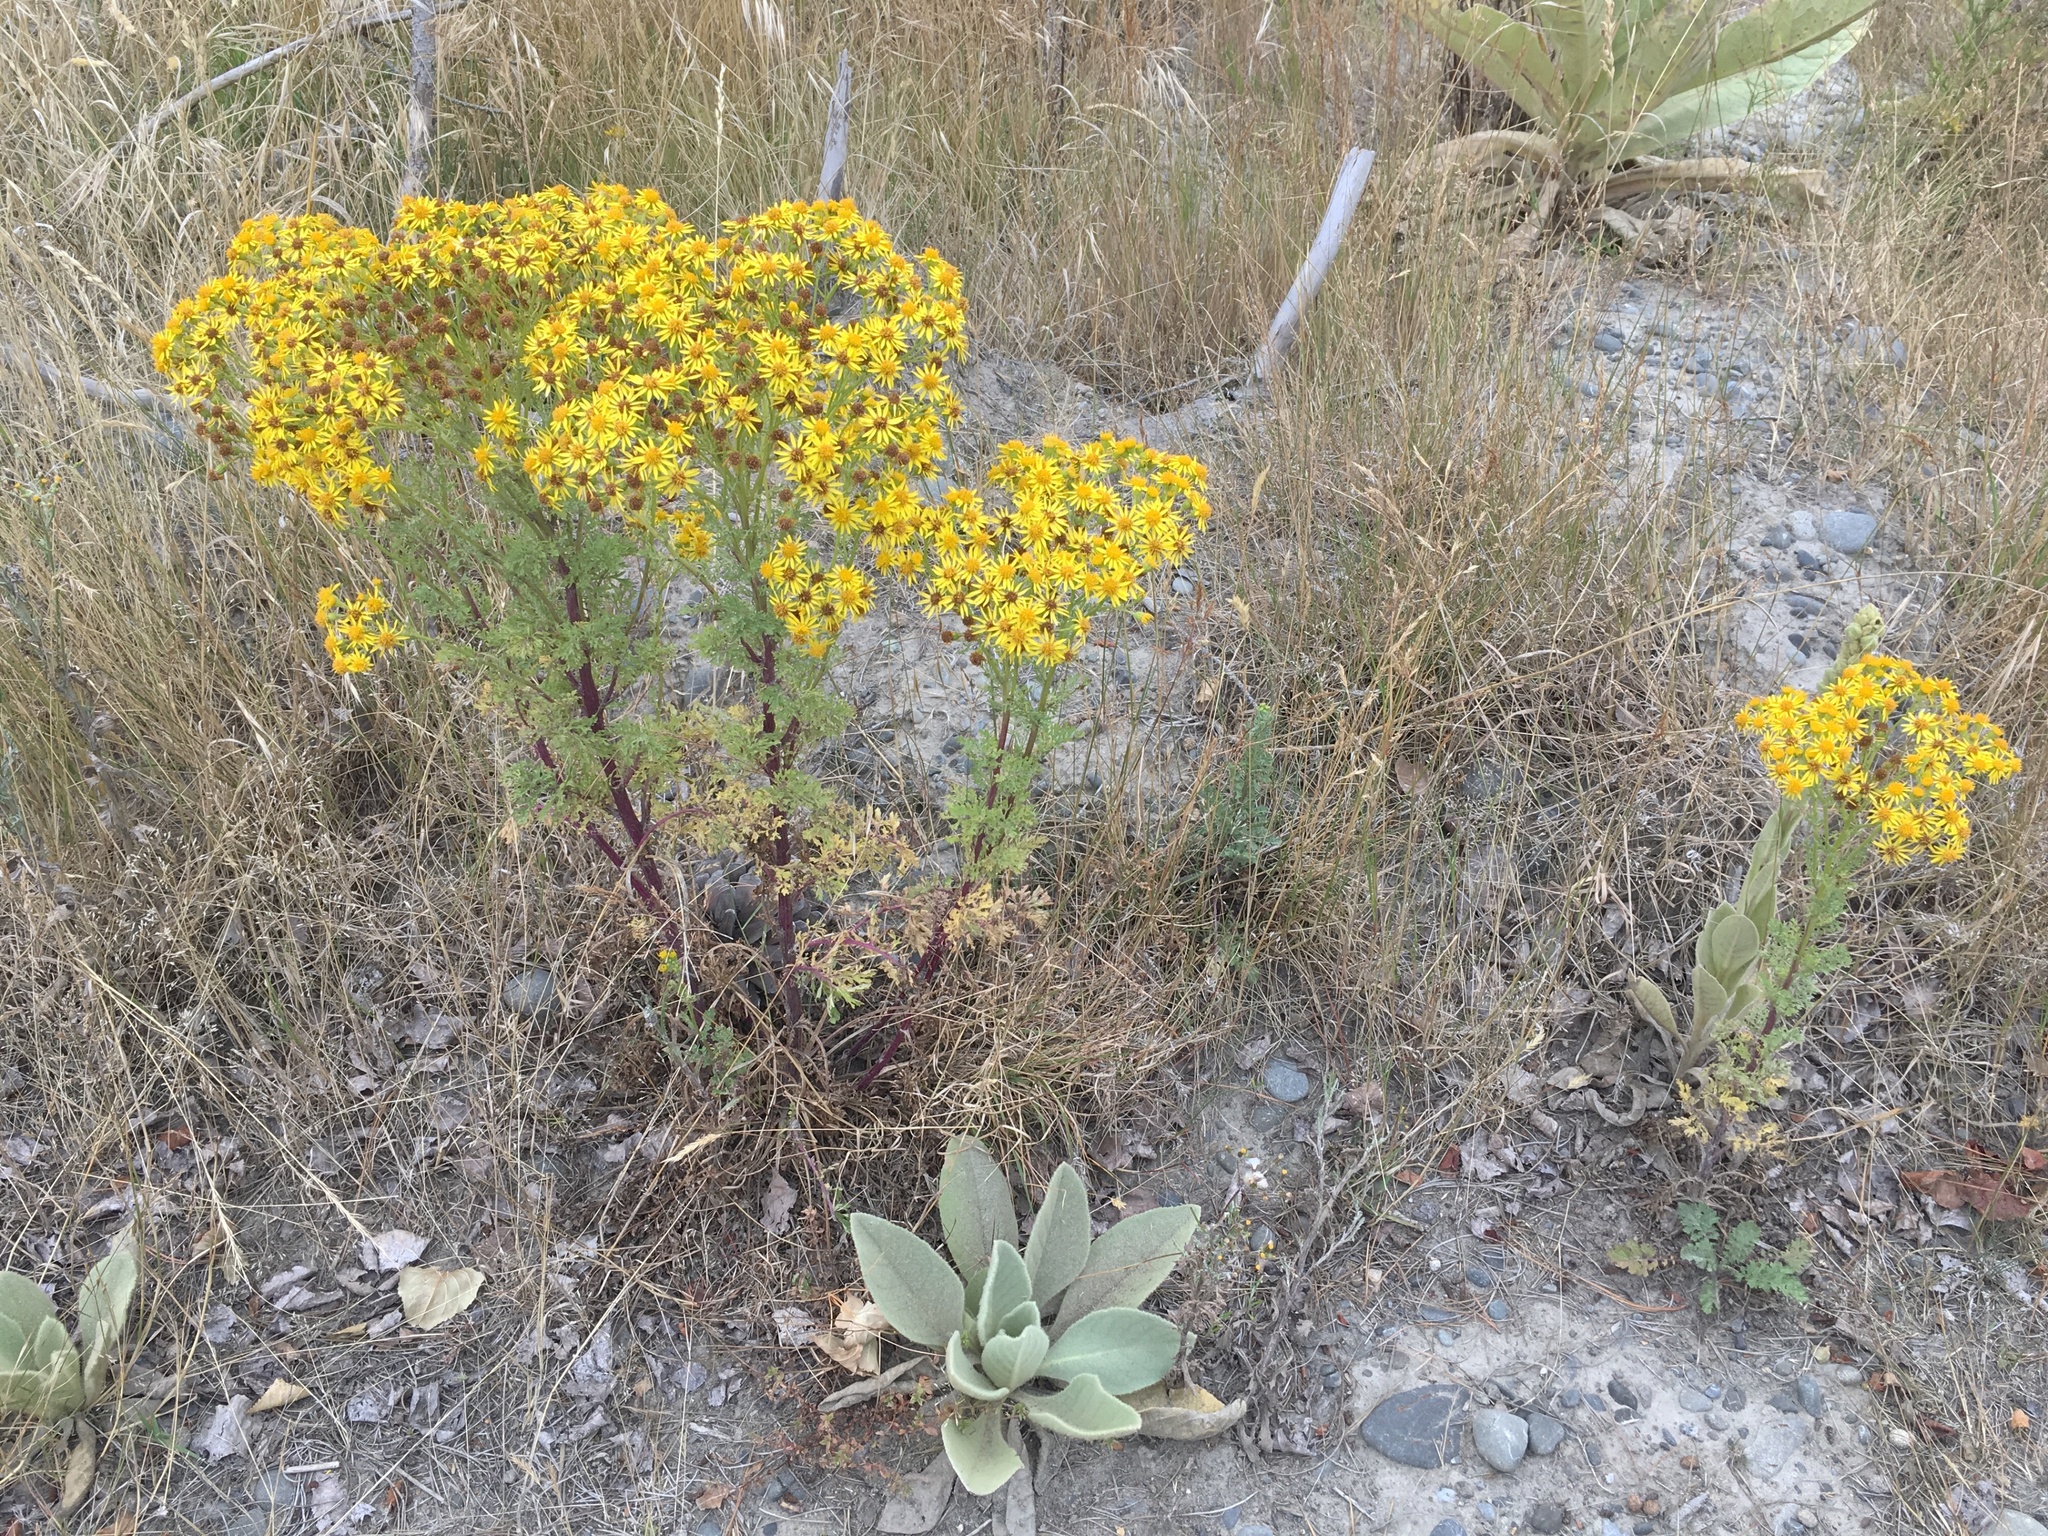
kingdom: Plantae
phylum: Tracheophyta
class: Magnoliopsida
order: Asterales
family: Asteraceae
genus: Jacobaea
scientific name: Jacobaea vulgaris
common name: Stinking willie
